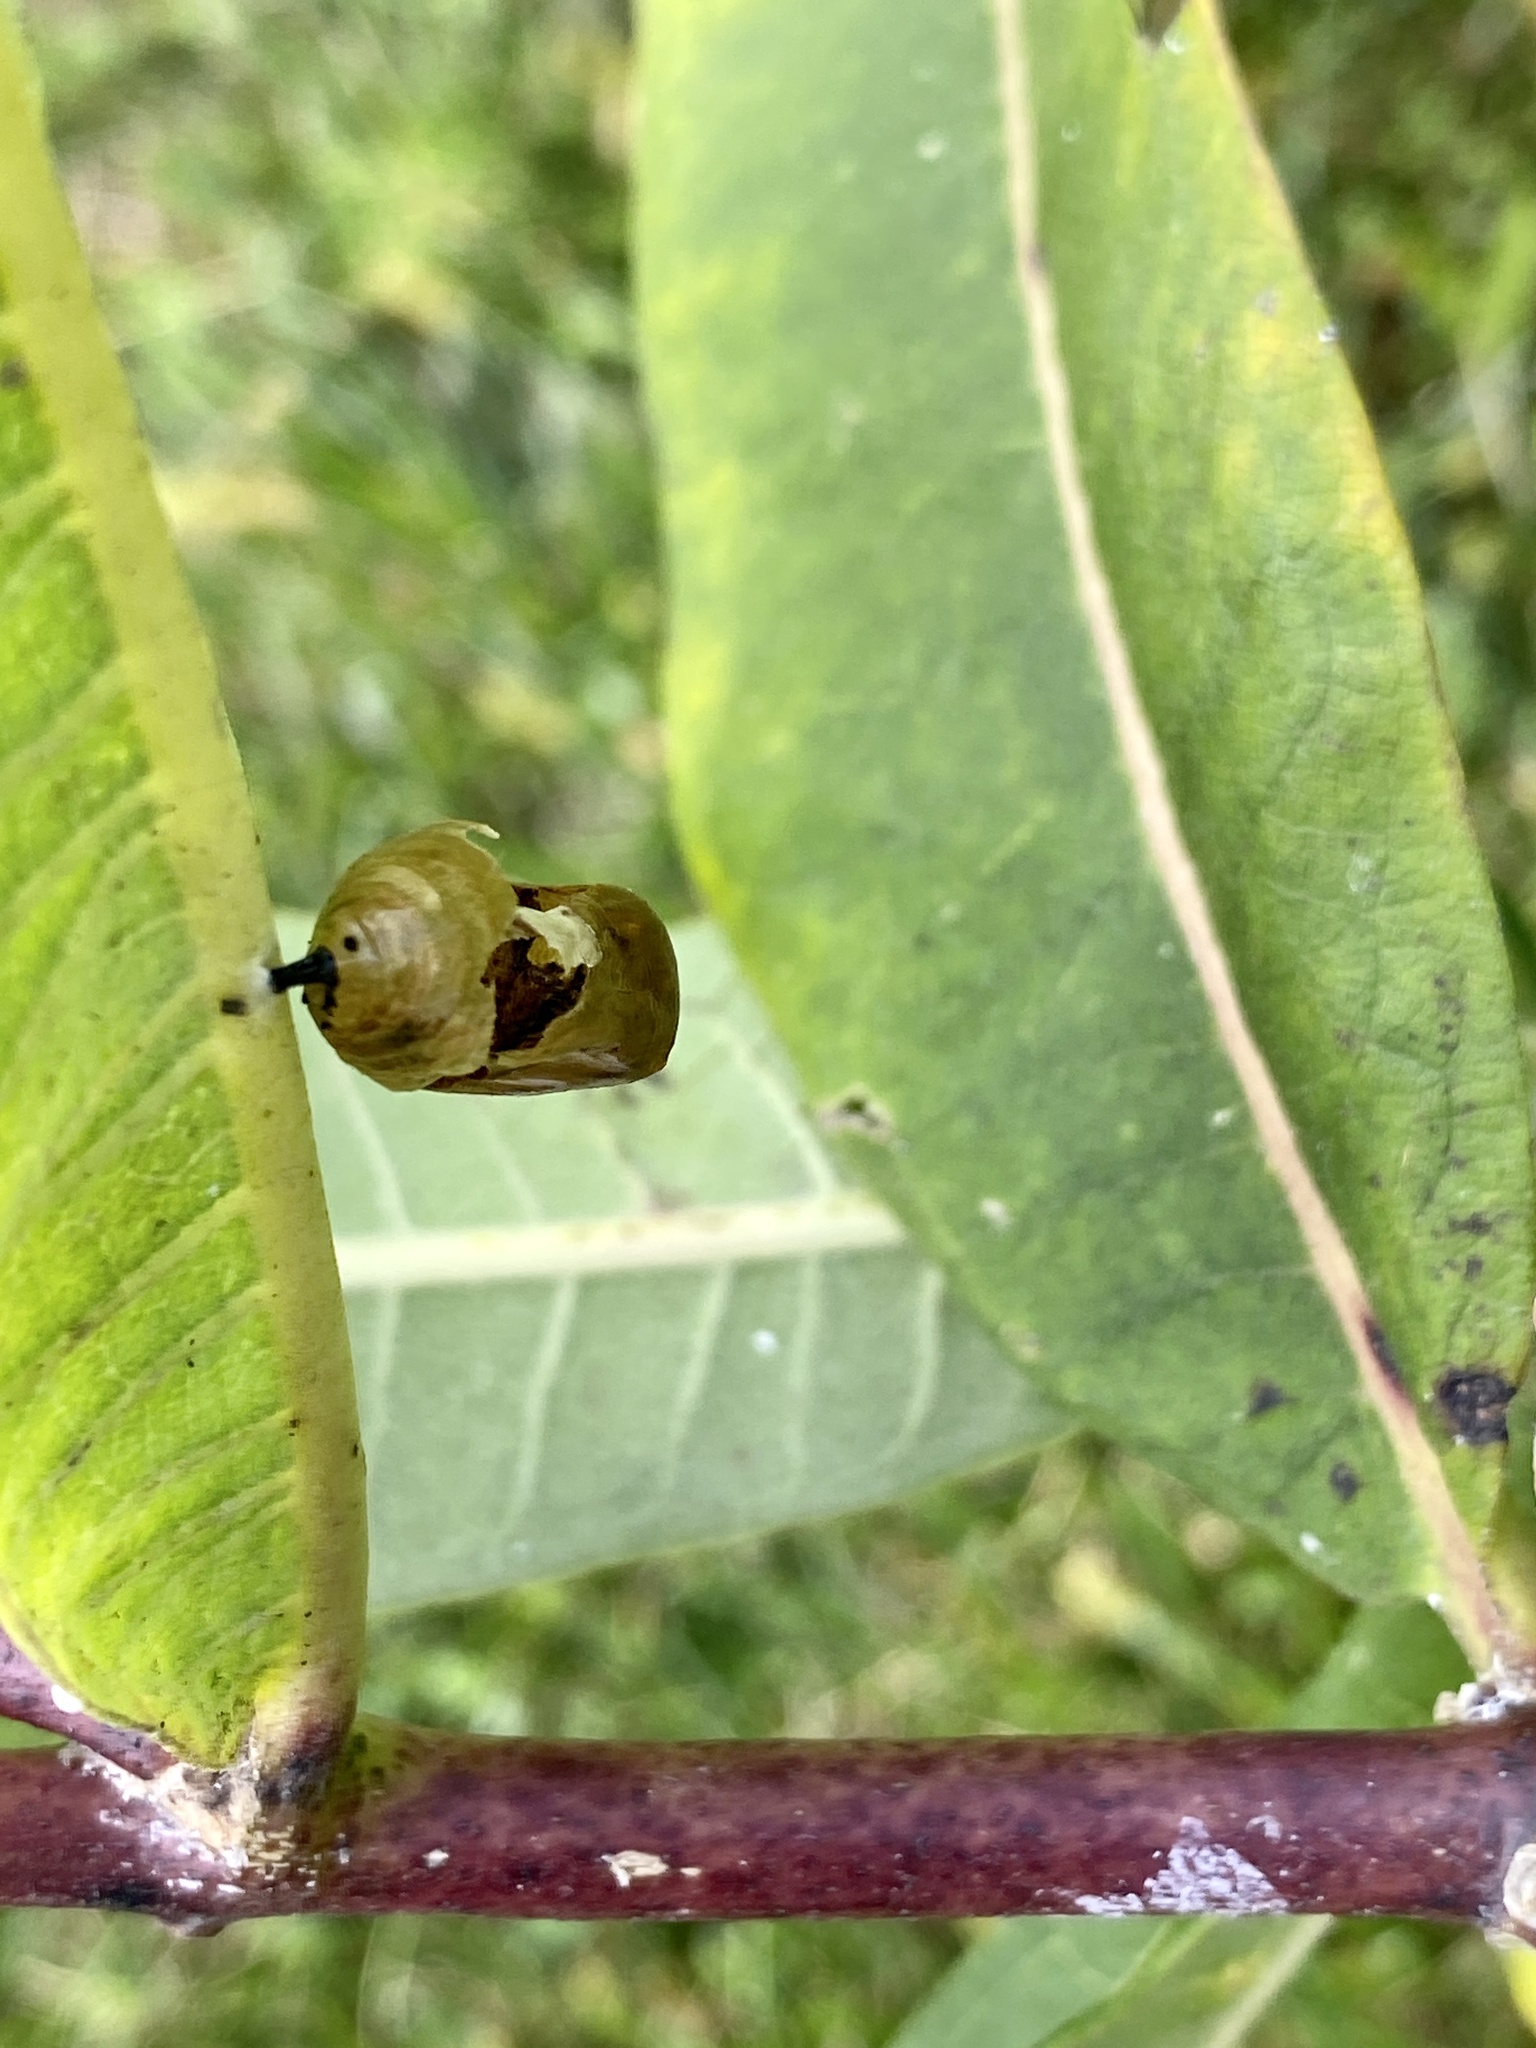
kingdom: Animalia
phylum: Arthropoda
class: Insecta
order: Lepidoptera
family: Nymphalidae
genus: Danaus
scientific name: Danaus plexippus
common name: Monarch
